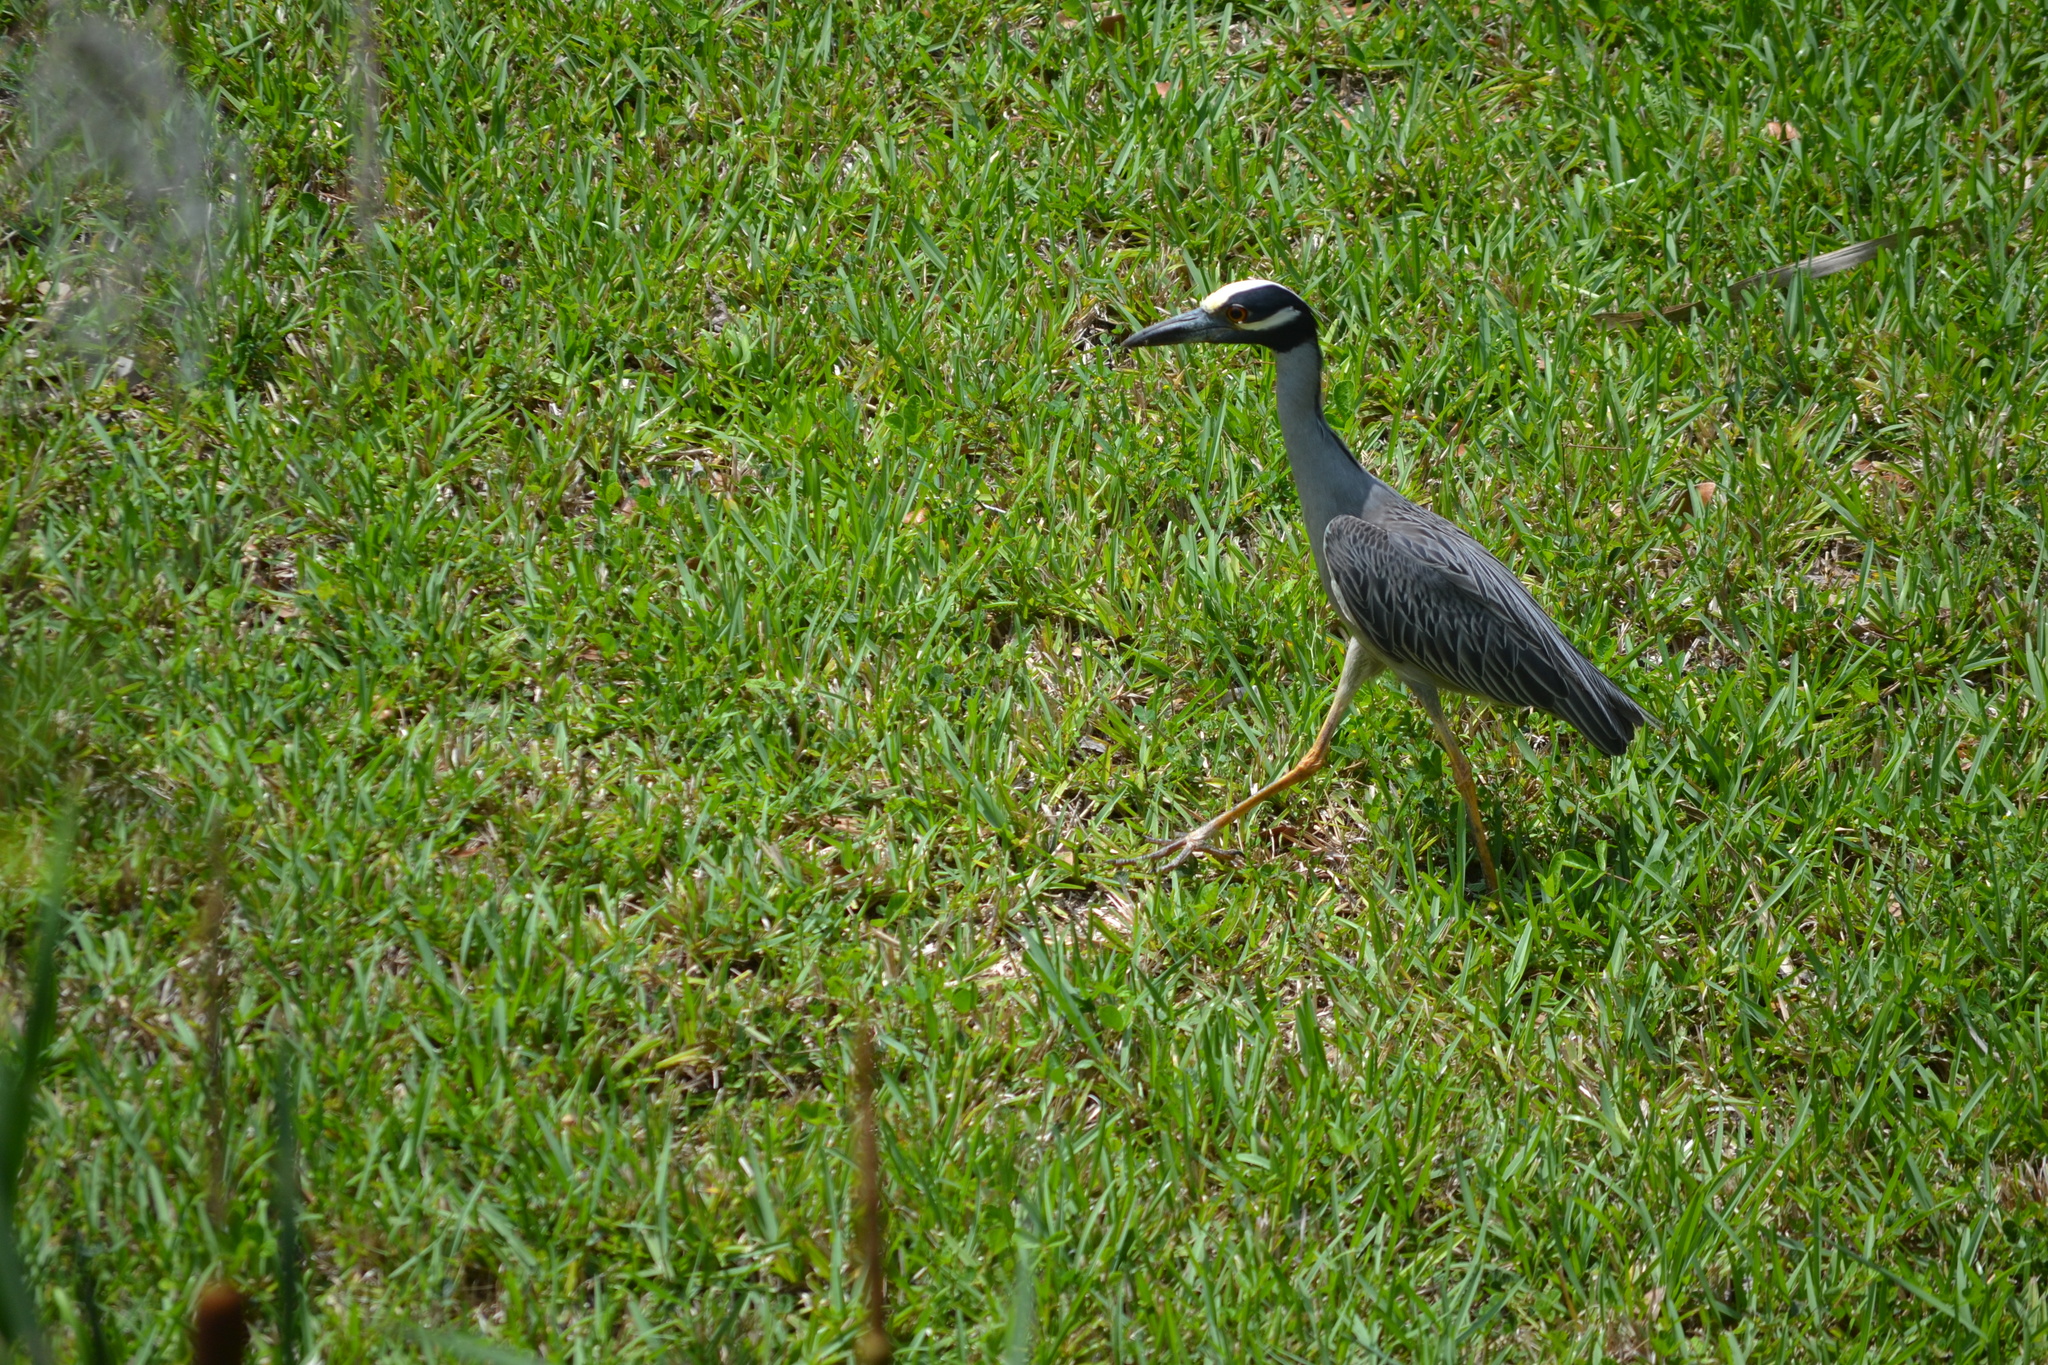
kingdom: Animalia
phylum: Chordata
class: Aves
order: Pelecaniformes
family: Ardeidae
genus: Nyctanassa
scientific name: Nyctanassa violacea
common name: Yellow-crowned night heron
